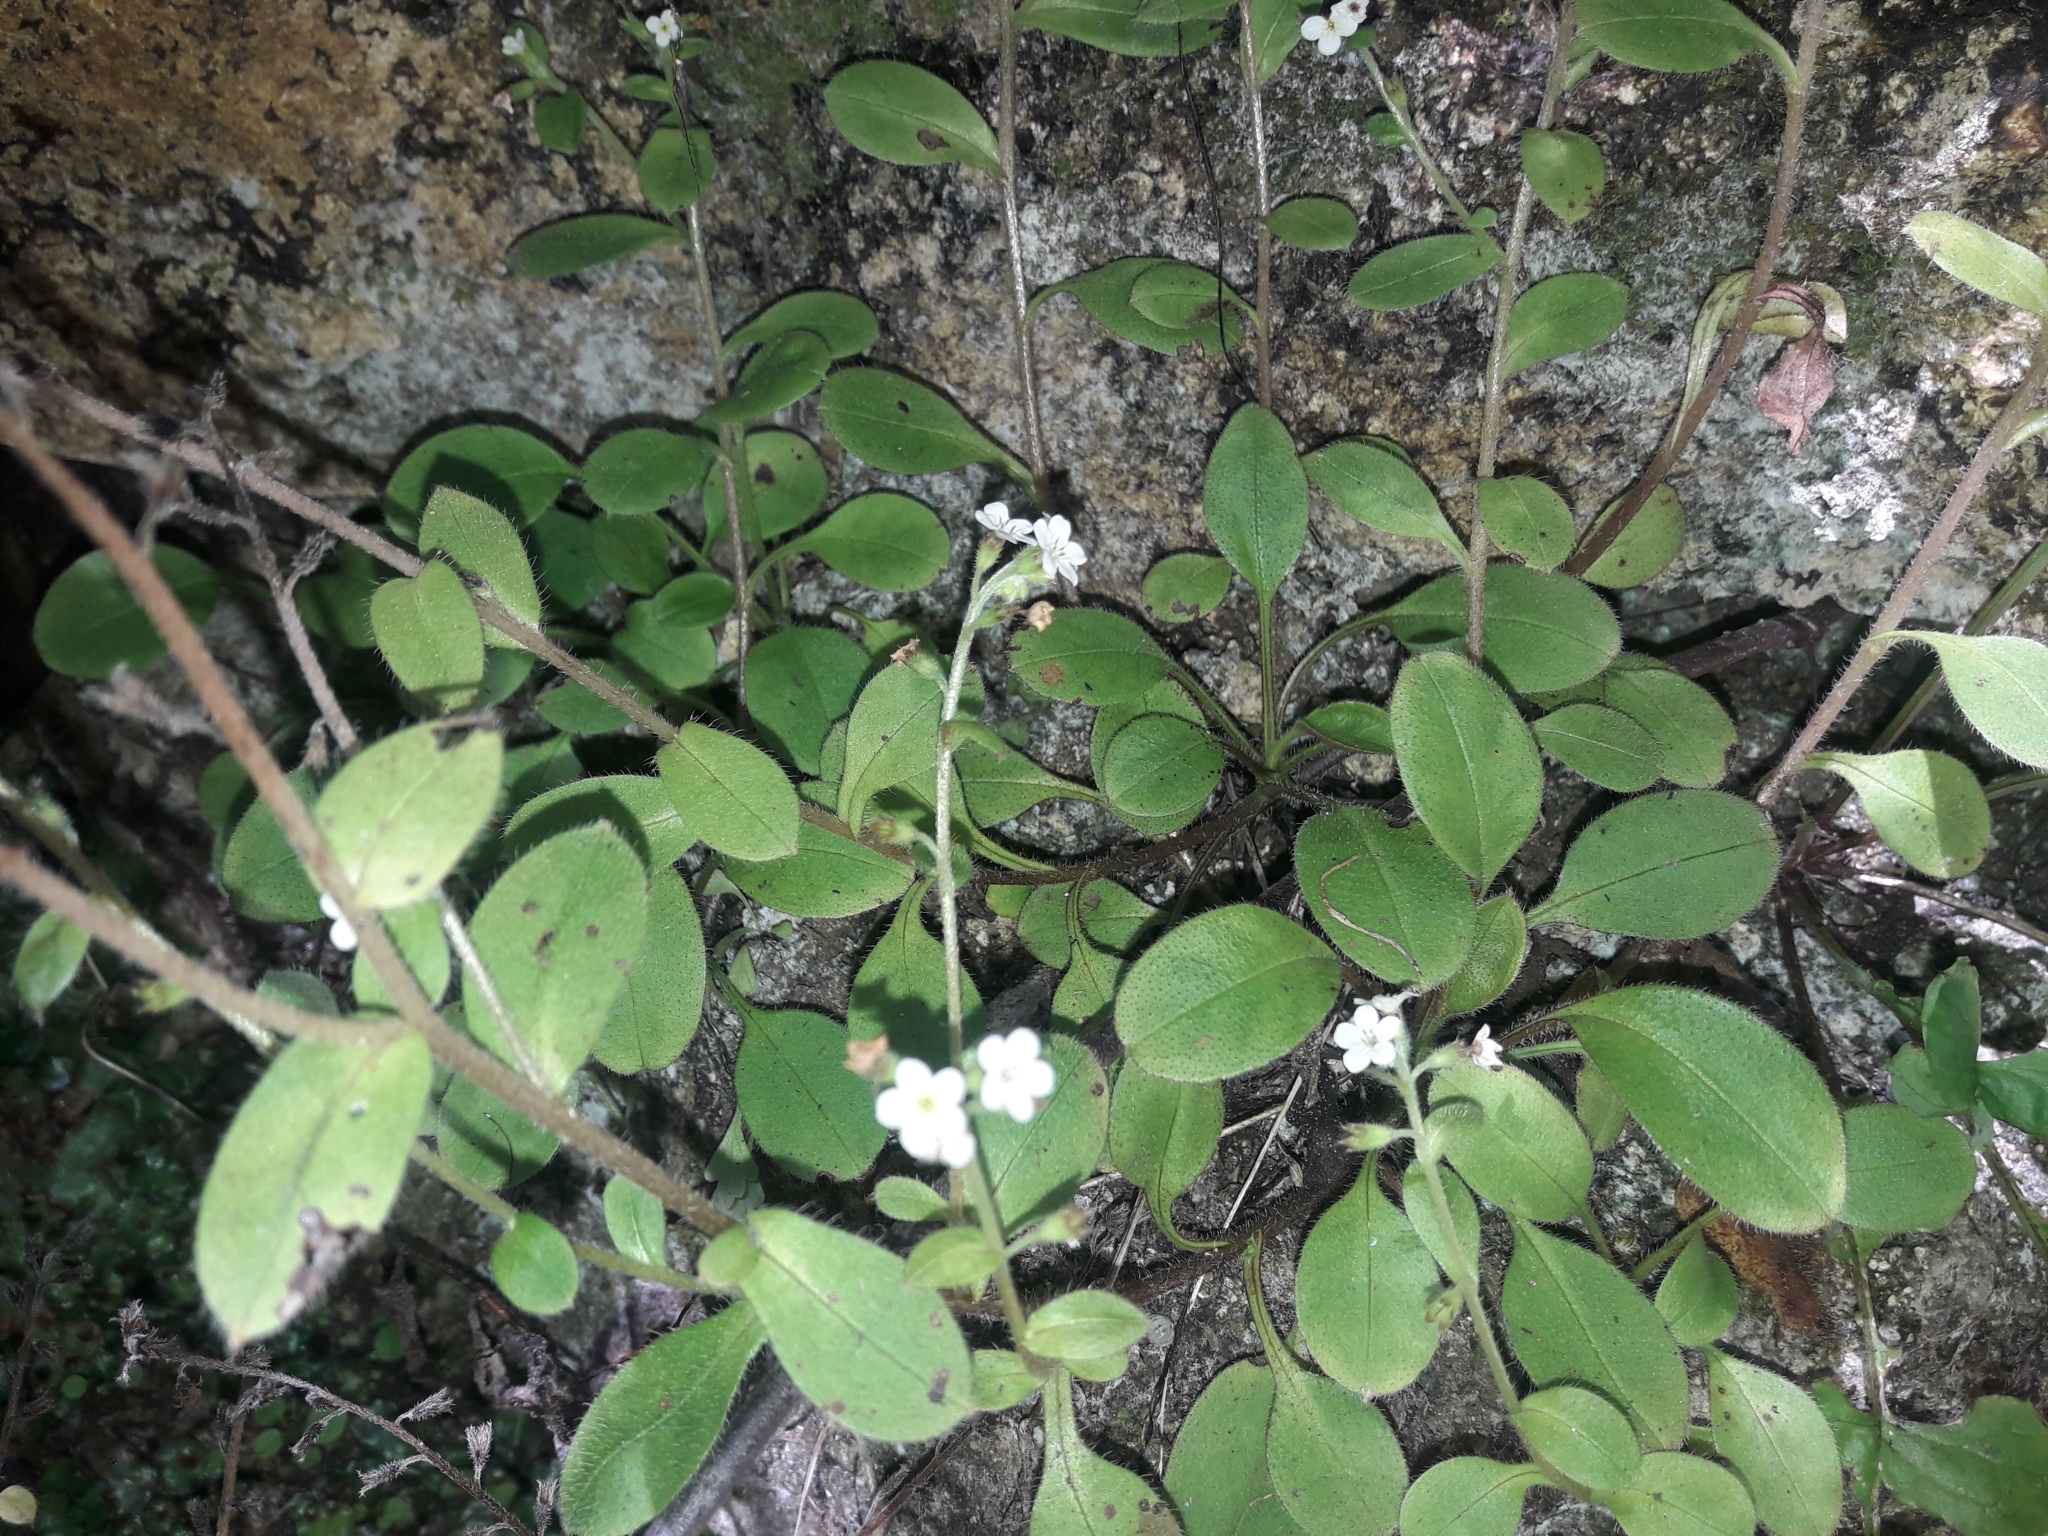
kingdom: Plantae
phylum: Tracheophyta
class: Magnoliopsida
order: Boraginales
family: Boraginaceae
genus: Myosotis
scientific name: Myosotis forsteri
